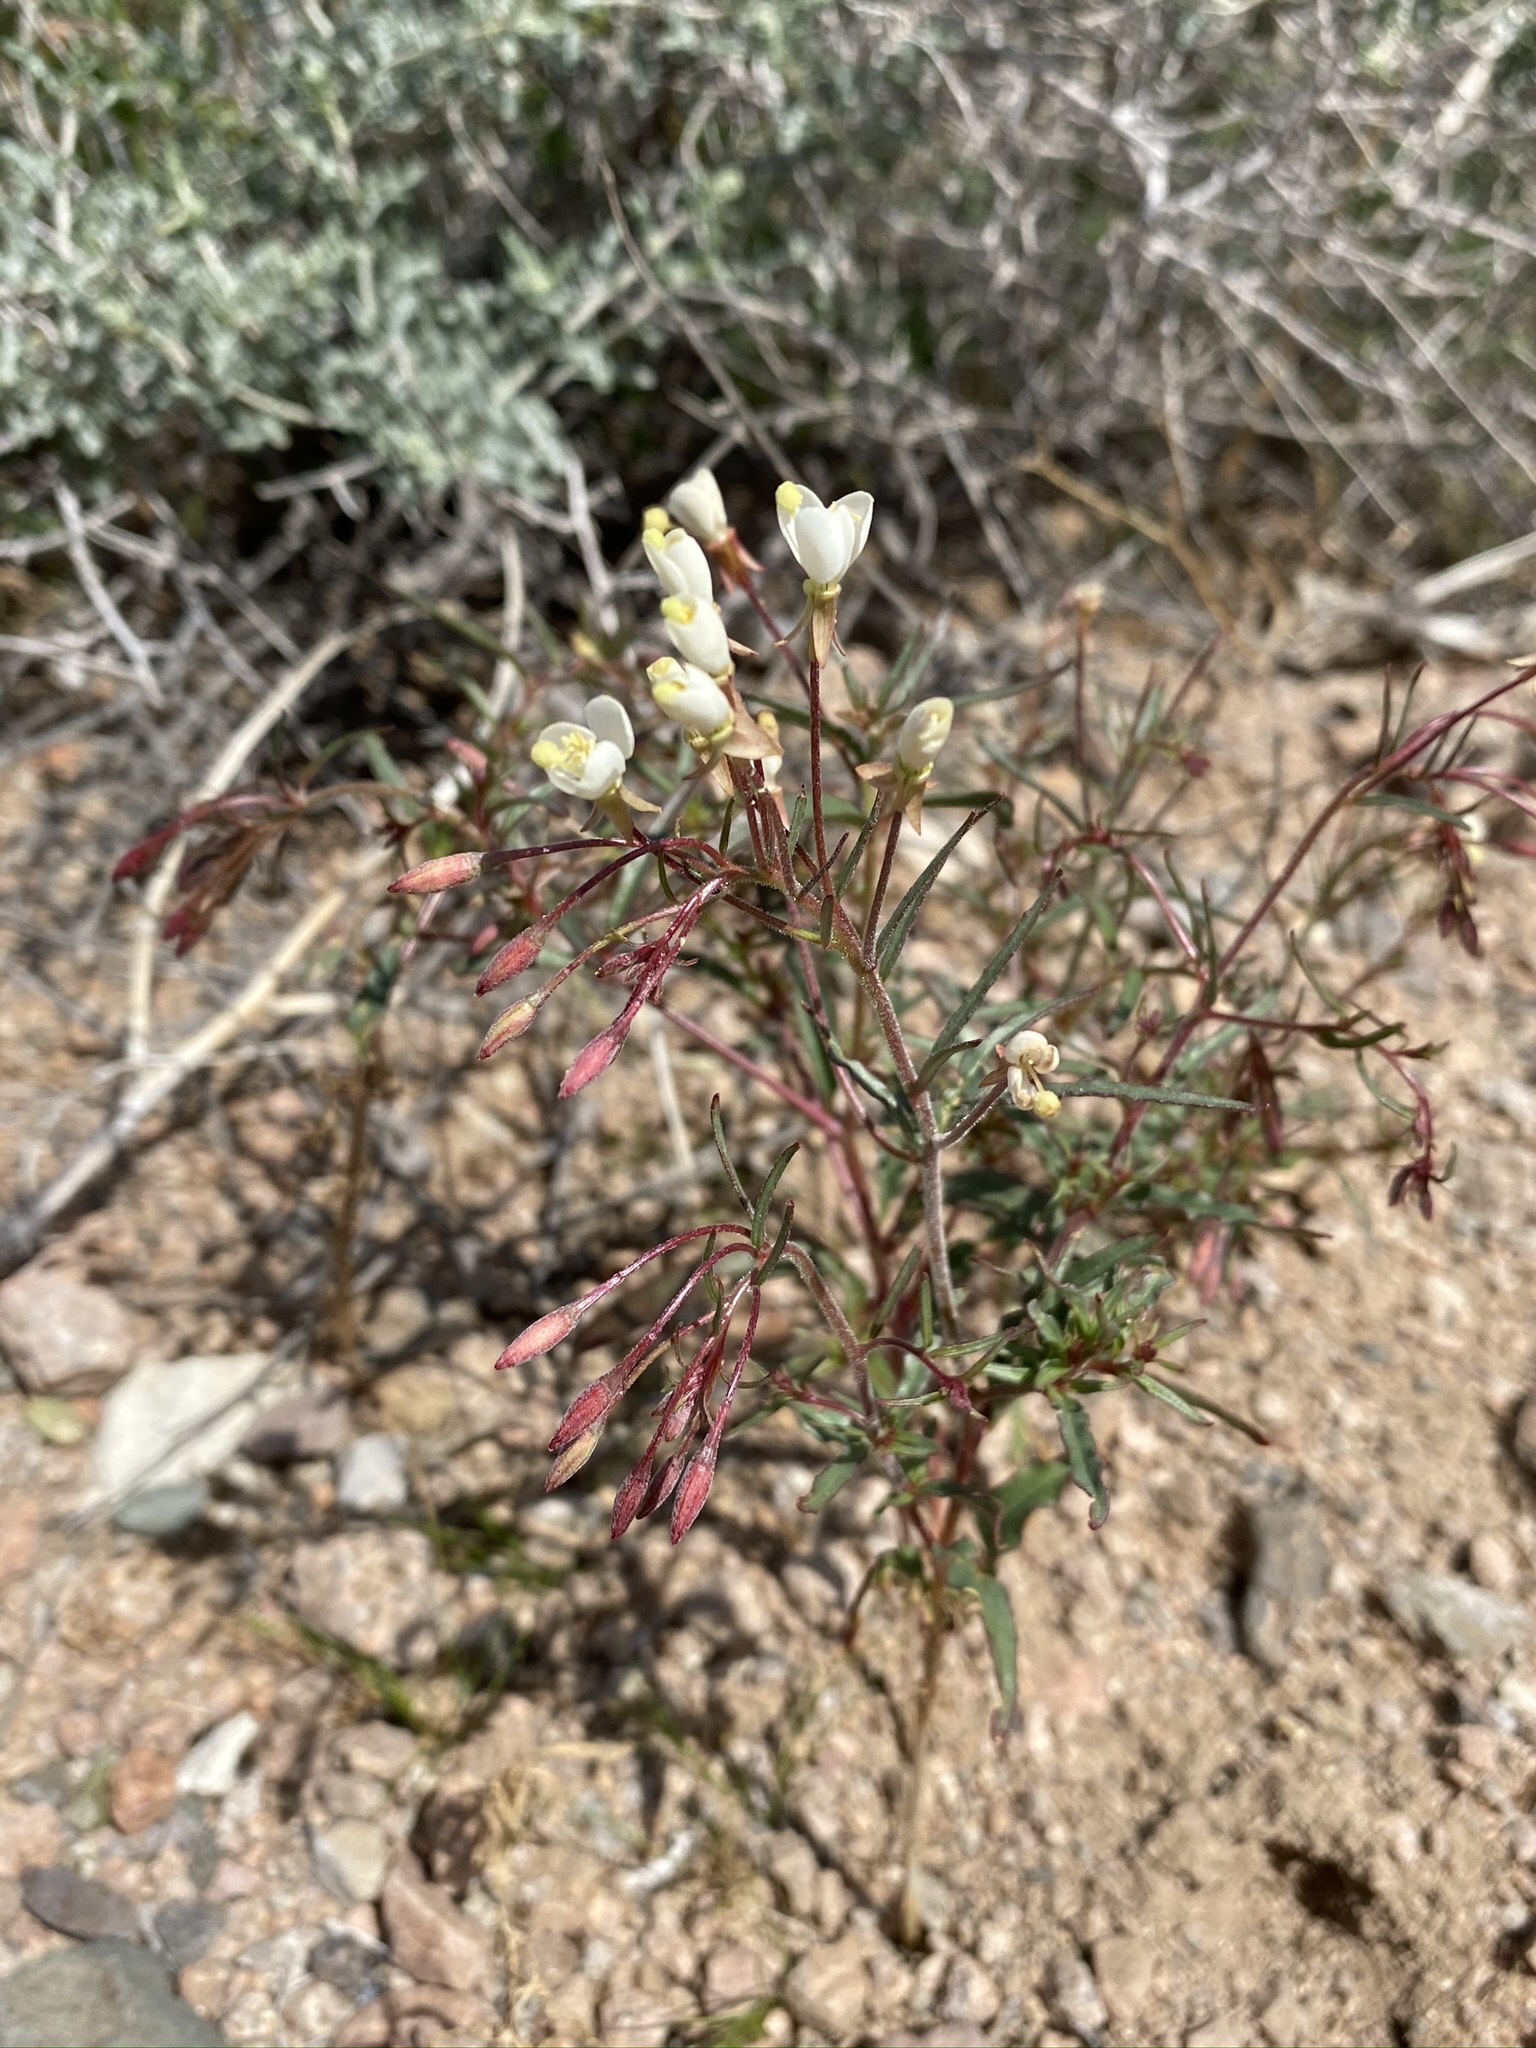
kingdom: Plantae
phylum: Tracheophyta
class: Magnoliopsida
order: Myrtales
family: Onagraceae
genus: Eremothera
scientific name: Eremothera refracta
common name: Narrowleaf suncup
